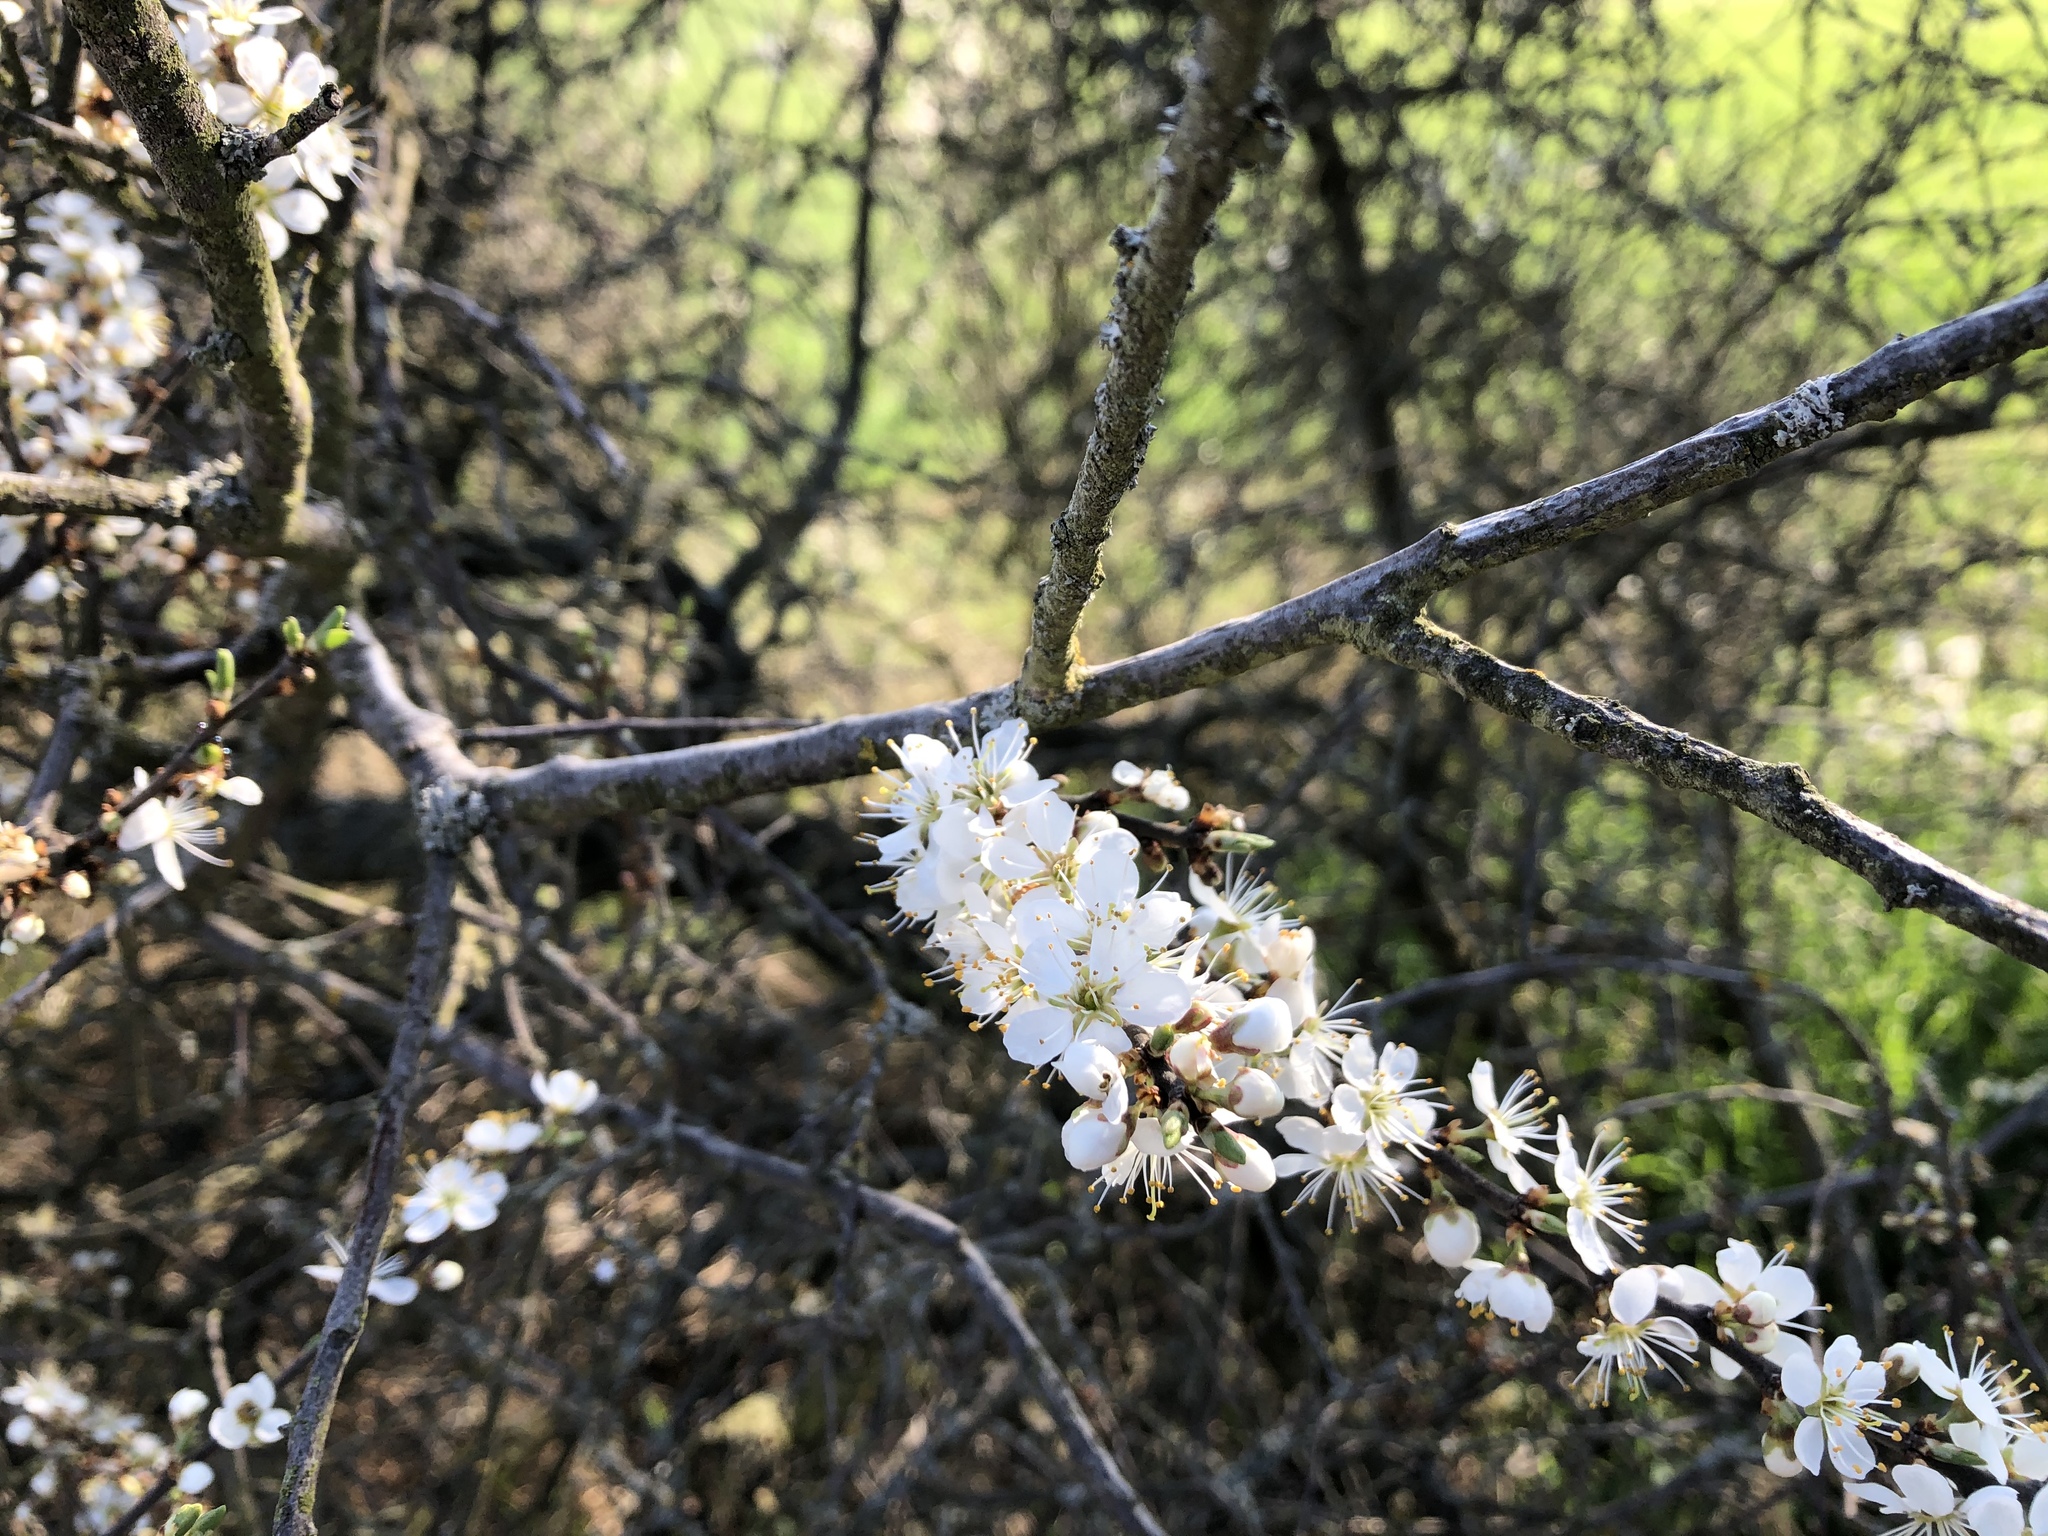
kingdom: Plantae
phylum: Tracheophyta
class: Magnoliopsida
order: Rosales
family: Rosaceae
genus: Prunus
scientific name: Prunus spinosa
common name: Blackthorn
